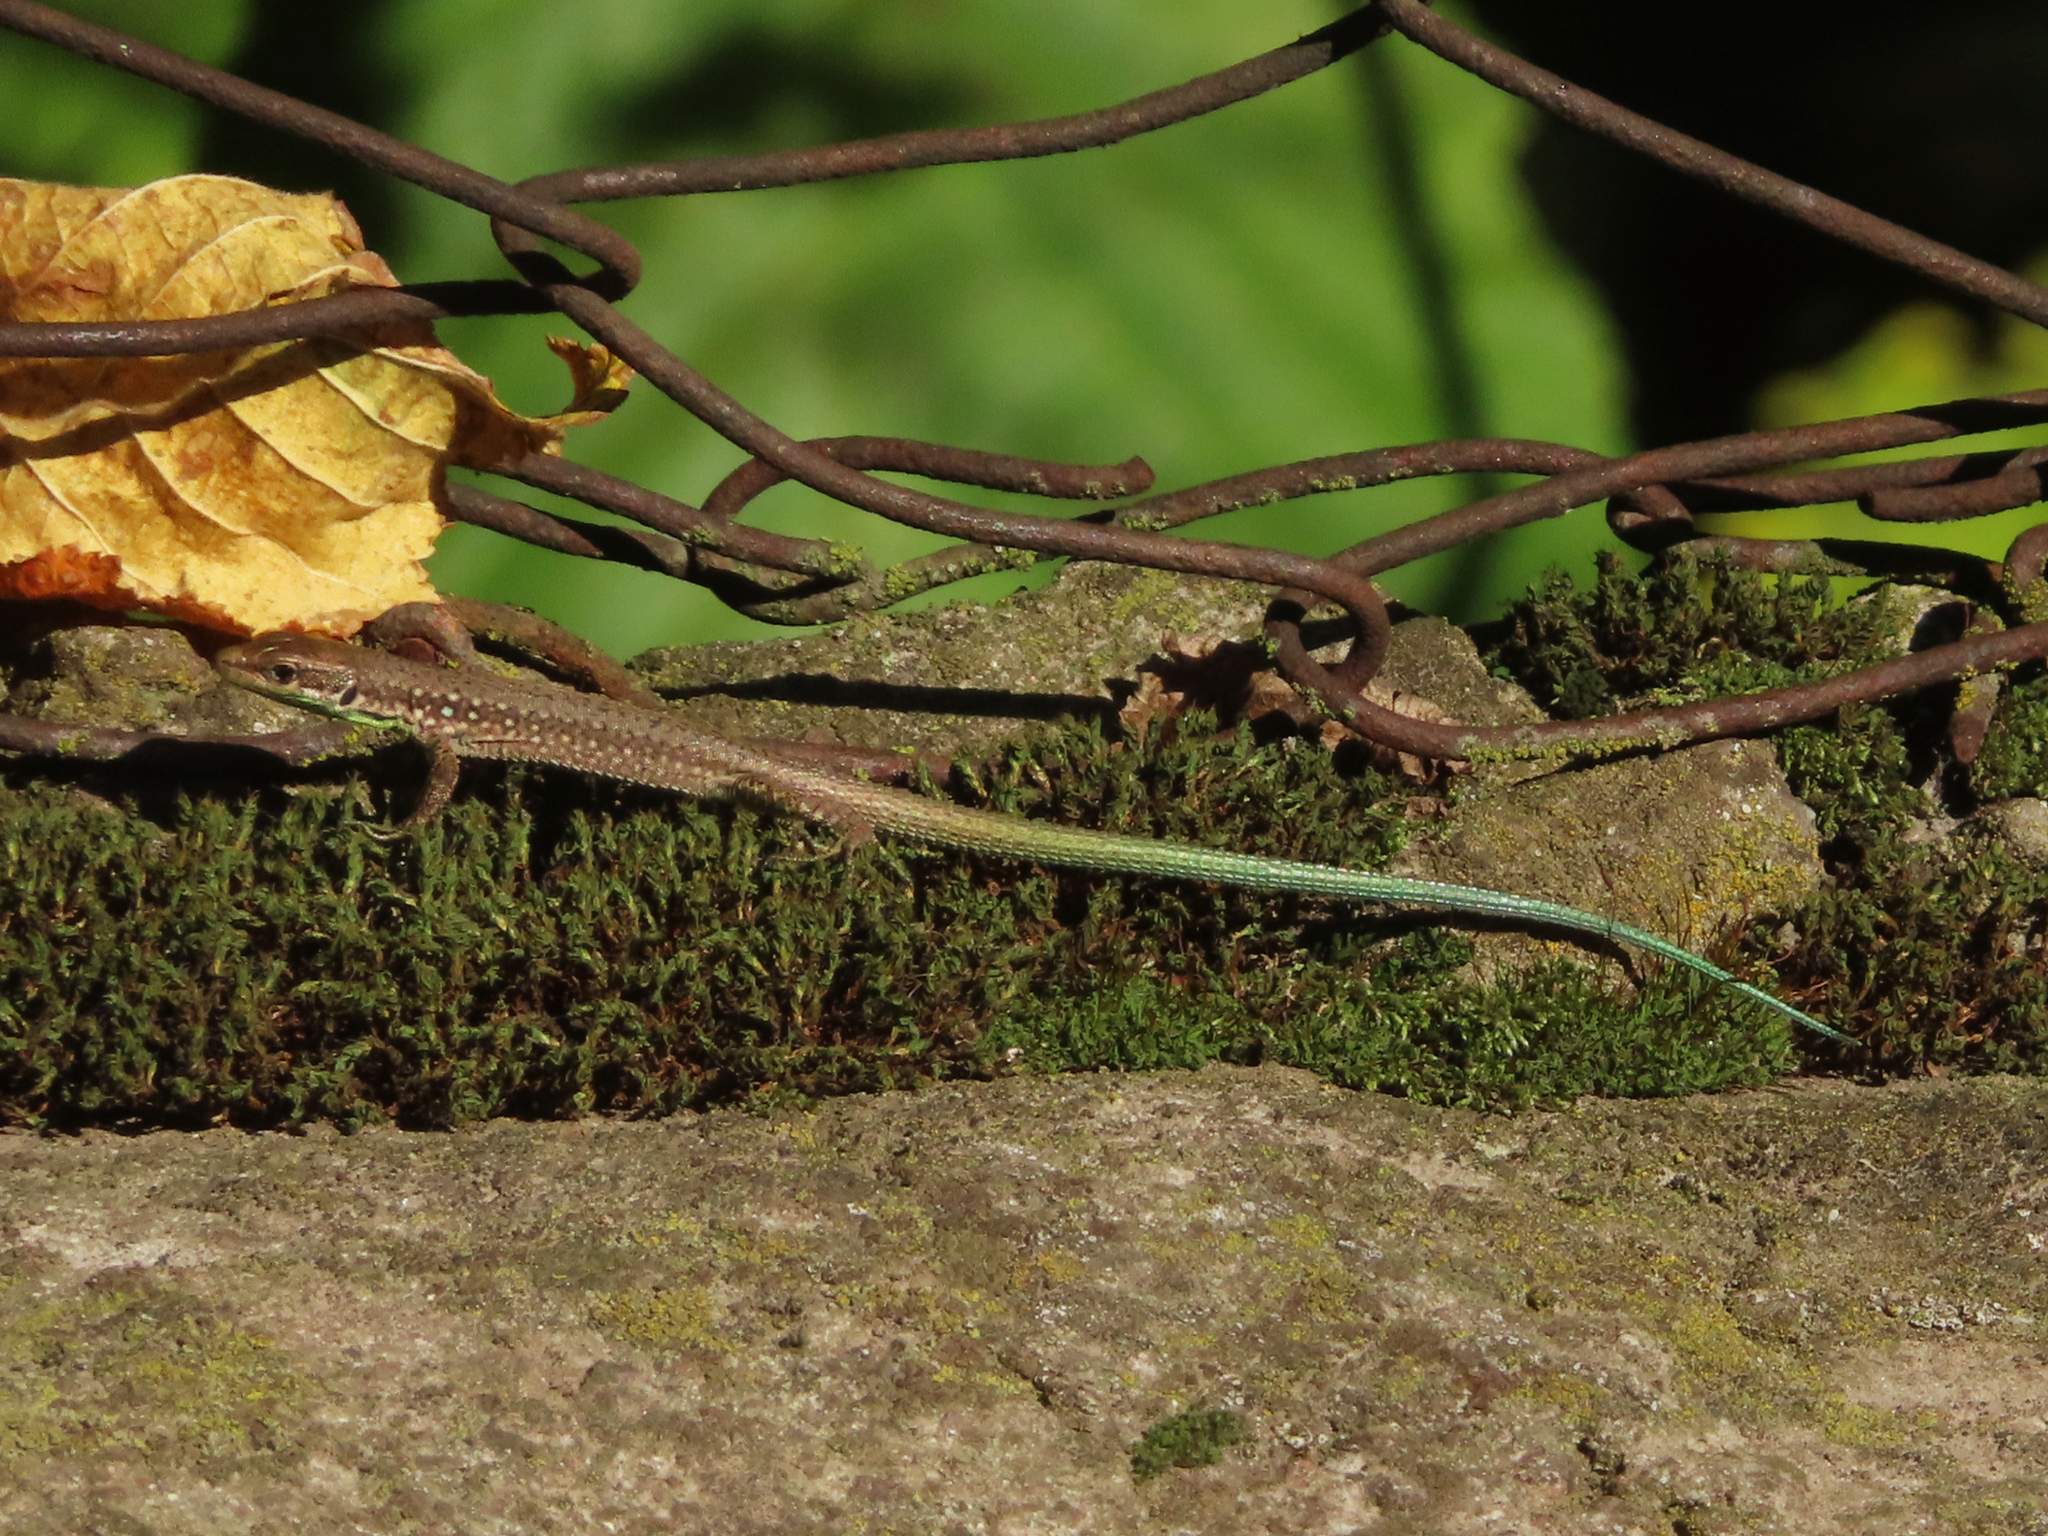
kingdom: Animalia
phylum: Chordata
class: Squamata
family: Lacertidae
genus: Darevskia
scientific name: Darevskia raddei
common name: Radde's lizard
